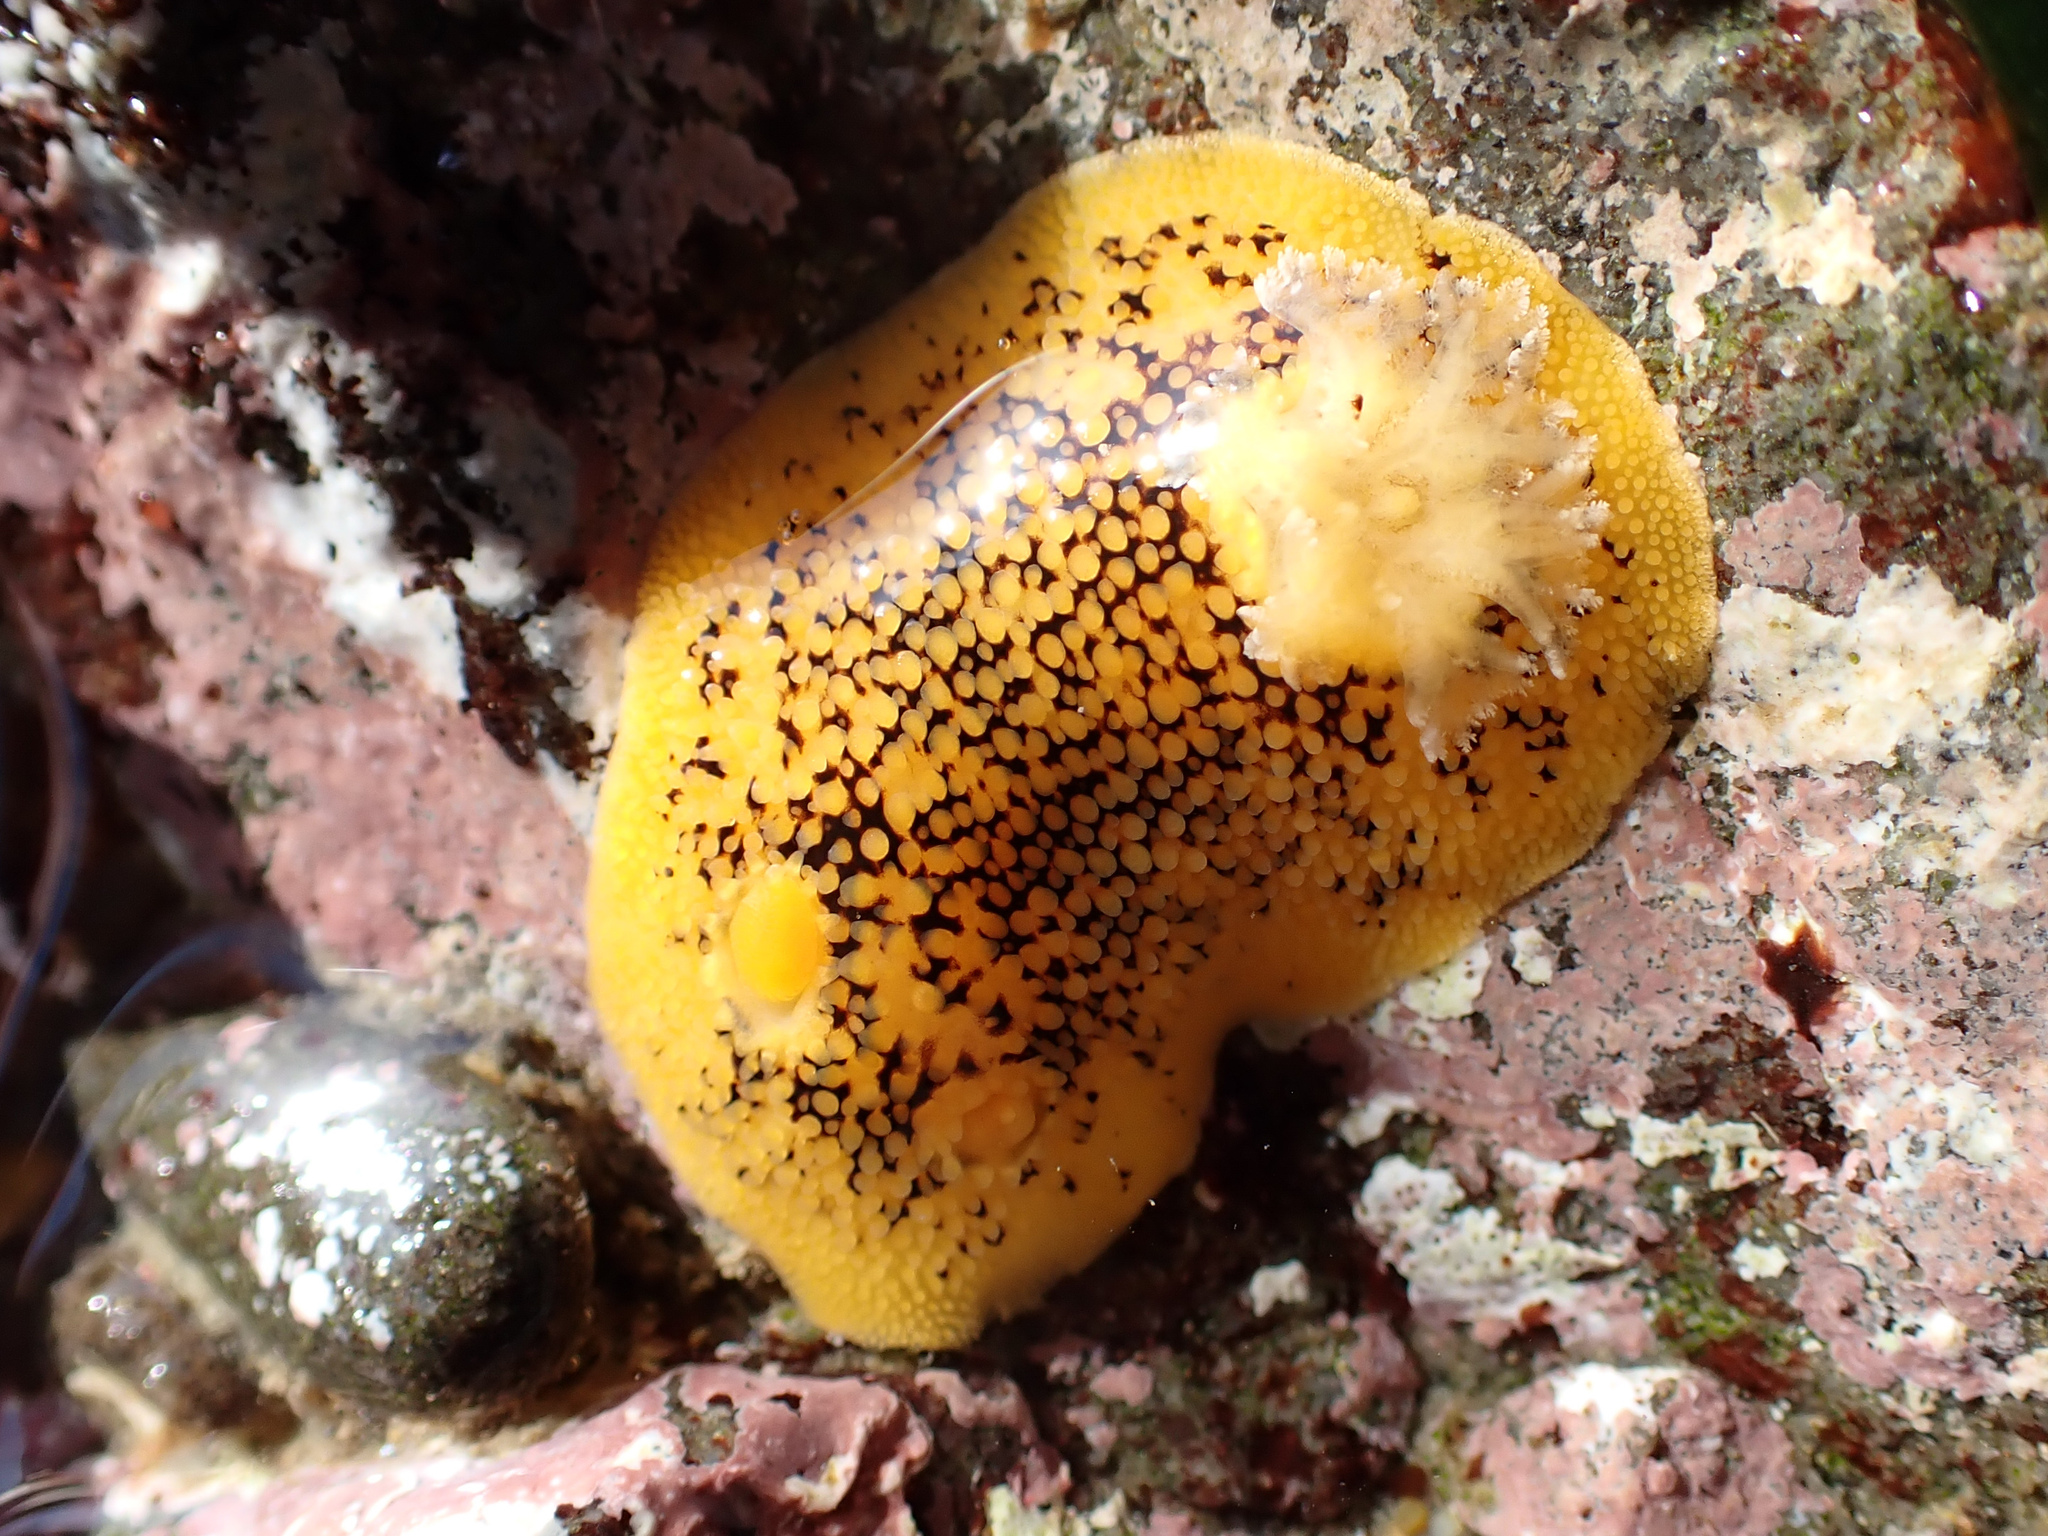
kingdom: Animalia
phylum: Mollusca
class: Gastropoda
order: Nudibranchia
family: Discodorididae
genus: Peltodoris
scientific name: Peltodoris nobilis
